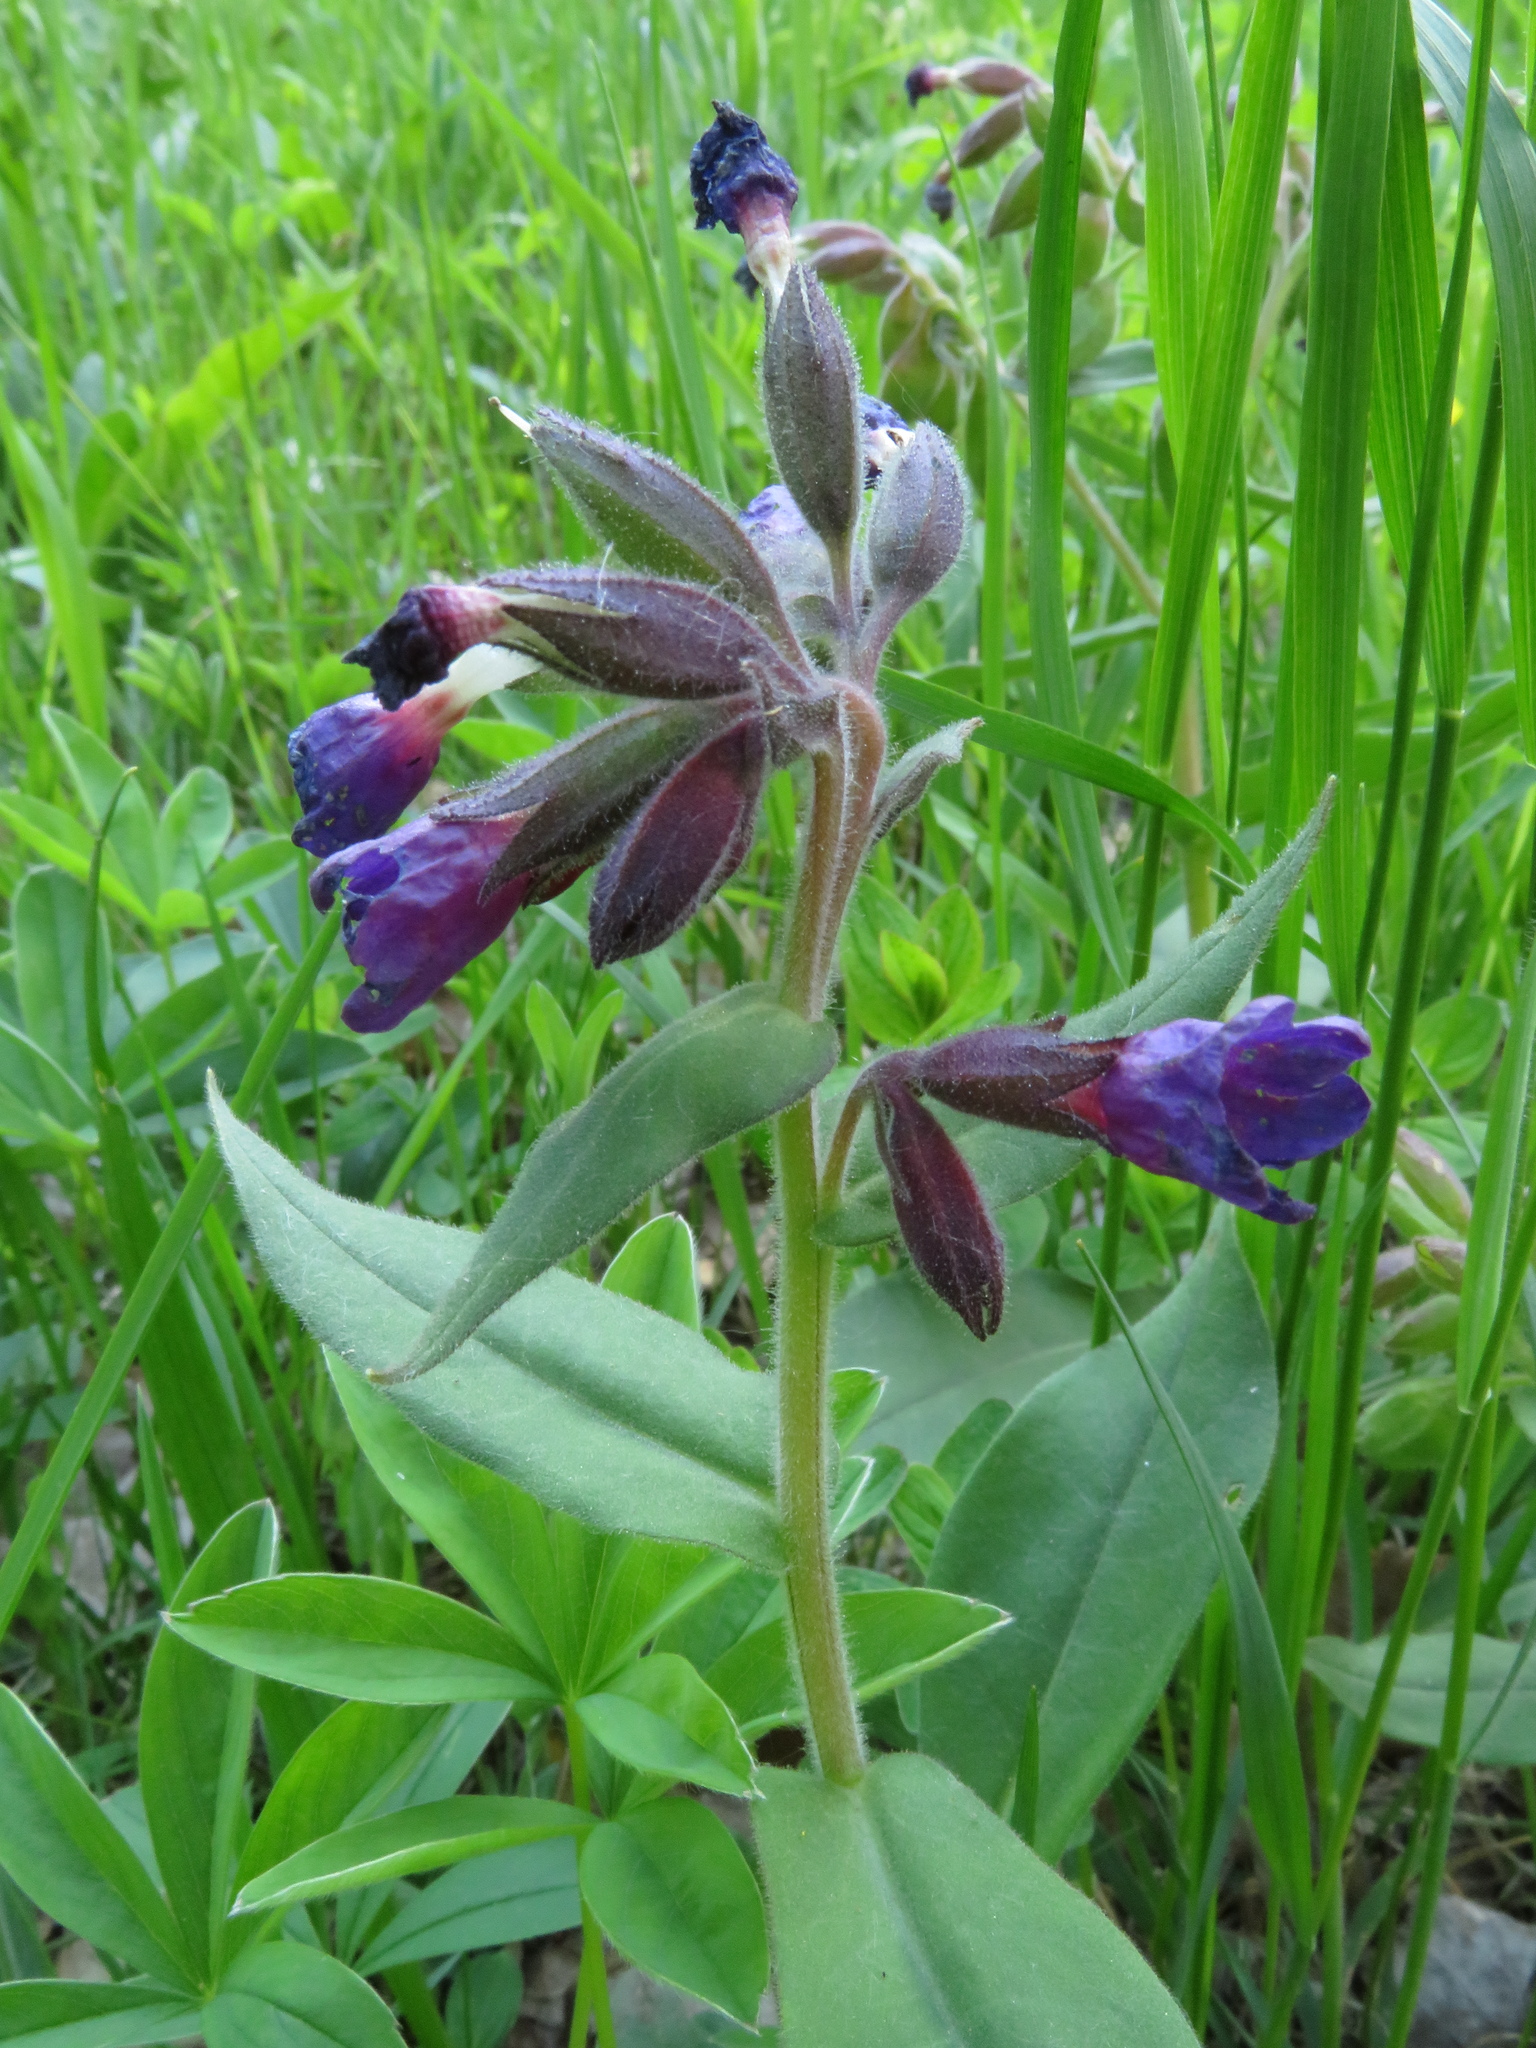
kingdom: Plantae
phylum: Tracheophyta
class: Magnoliopsida
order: Boraginales
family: Boraginaceae
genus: Pulmonaria
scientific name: Pulmonaria mollis
